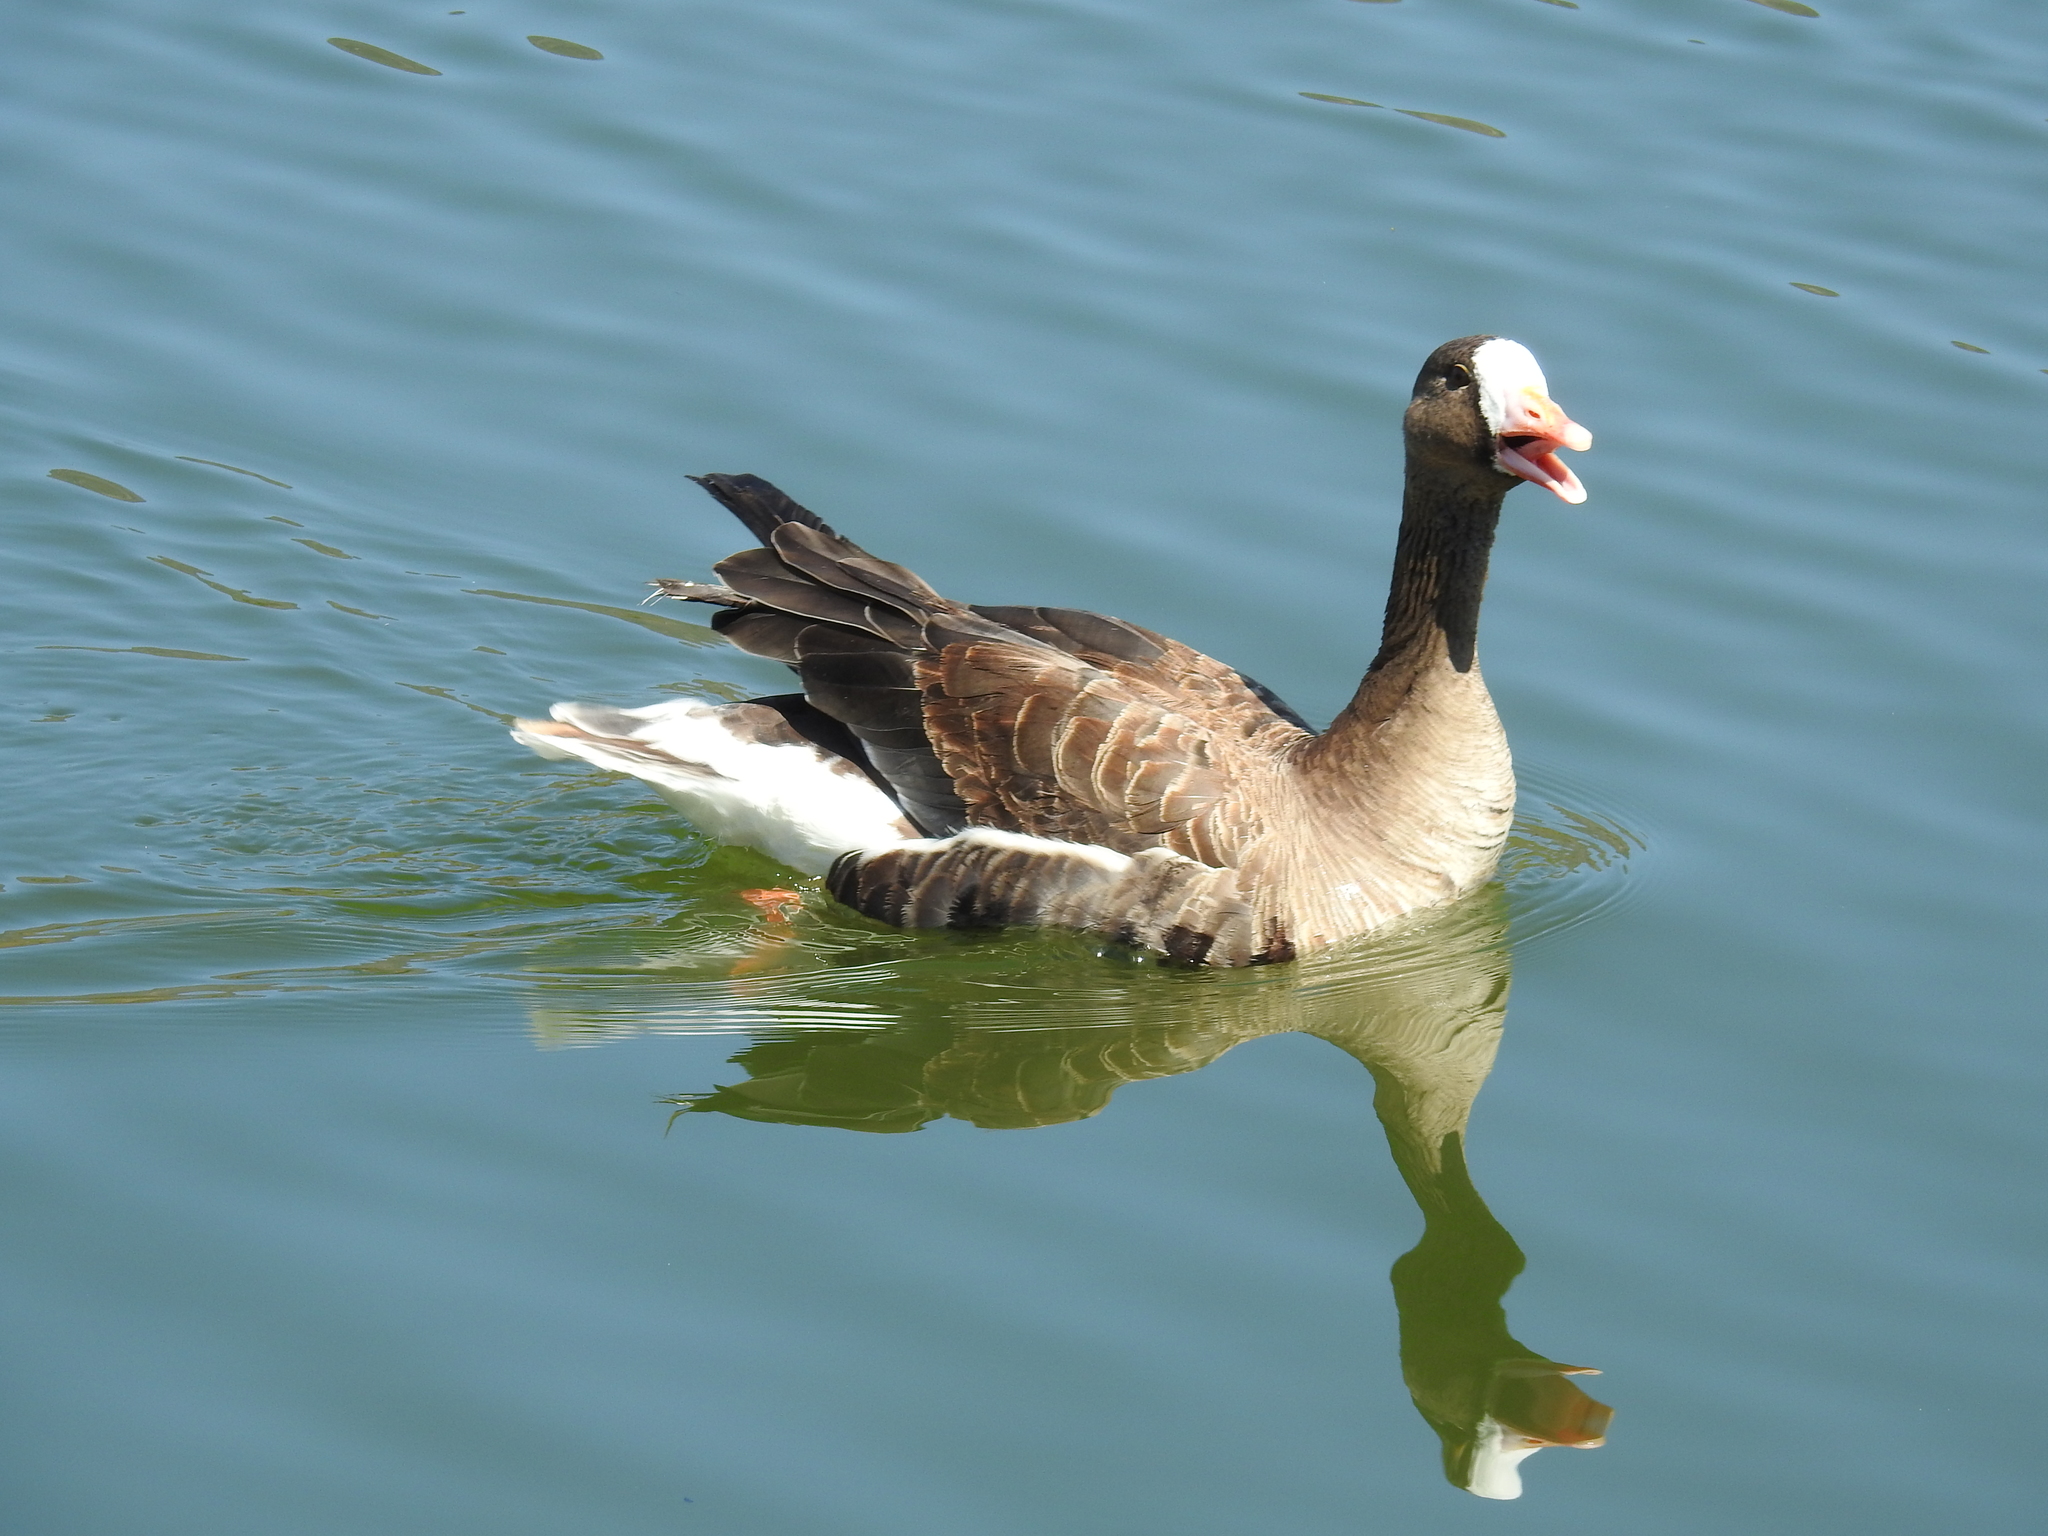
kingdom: Animalia
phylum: Chordata
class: Aves
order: Anseriformes
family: Anatidae
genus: Anser
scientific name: Anser albifrons
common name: Greater white-fronted goose
